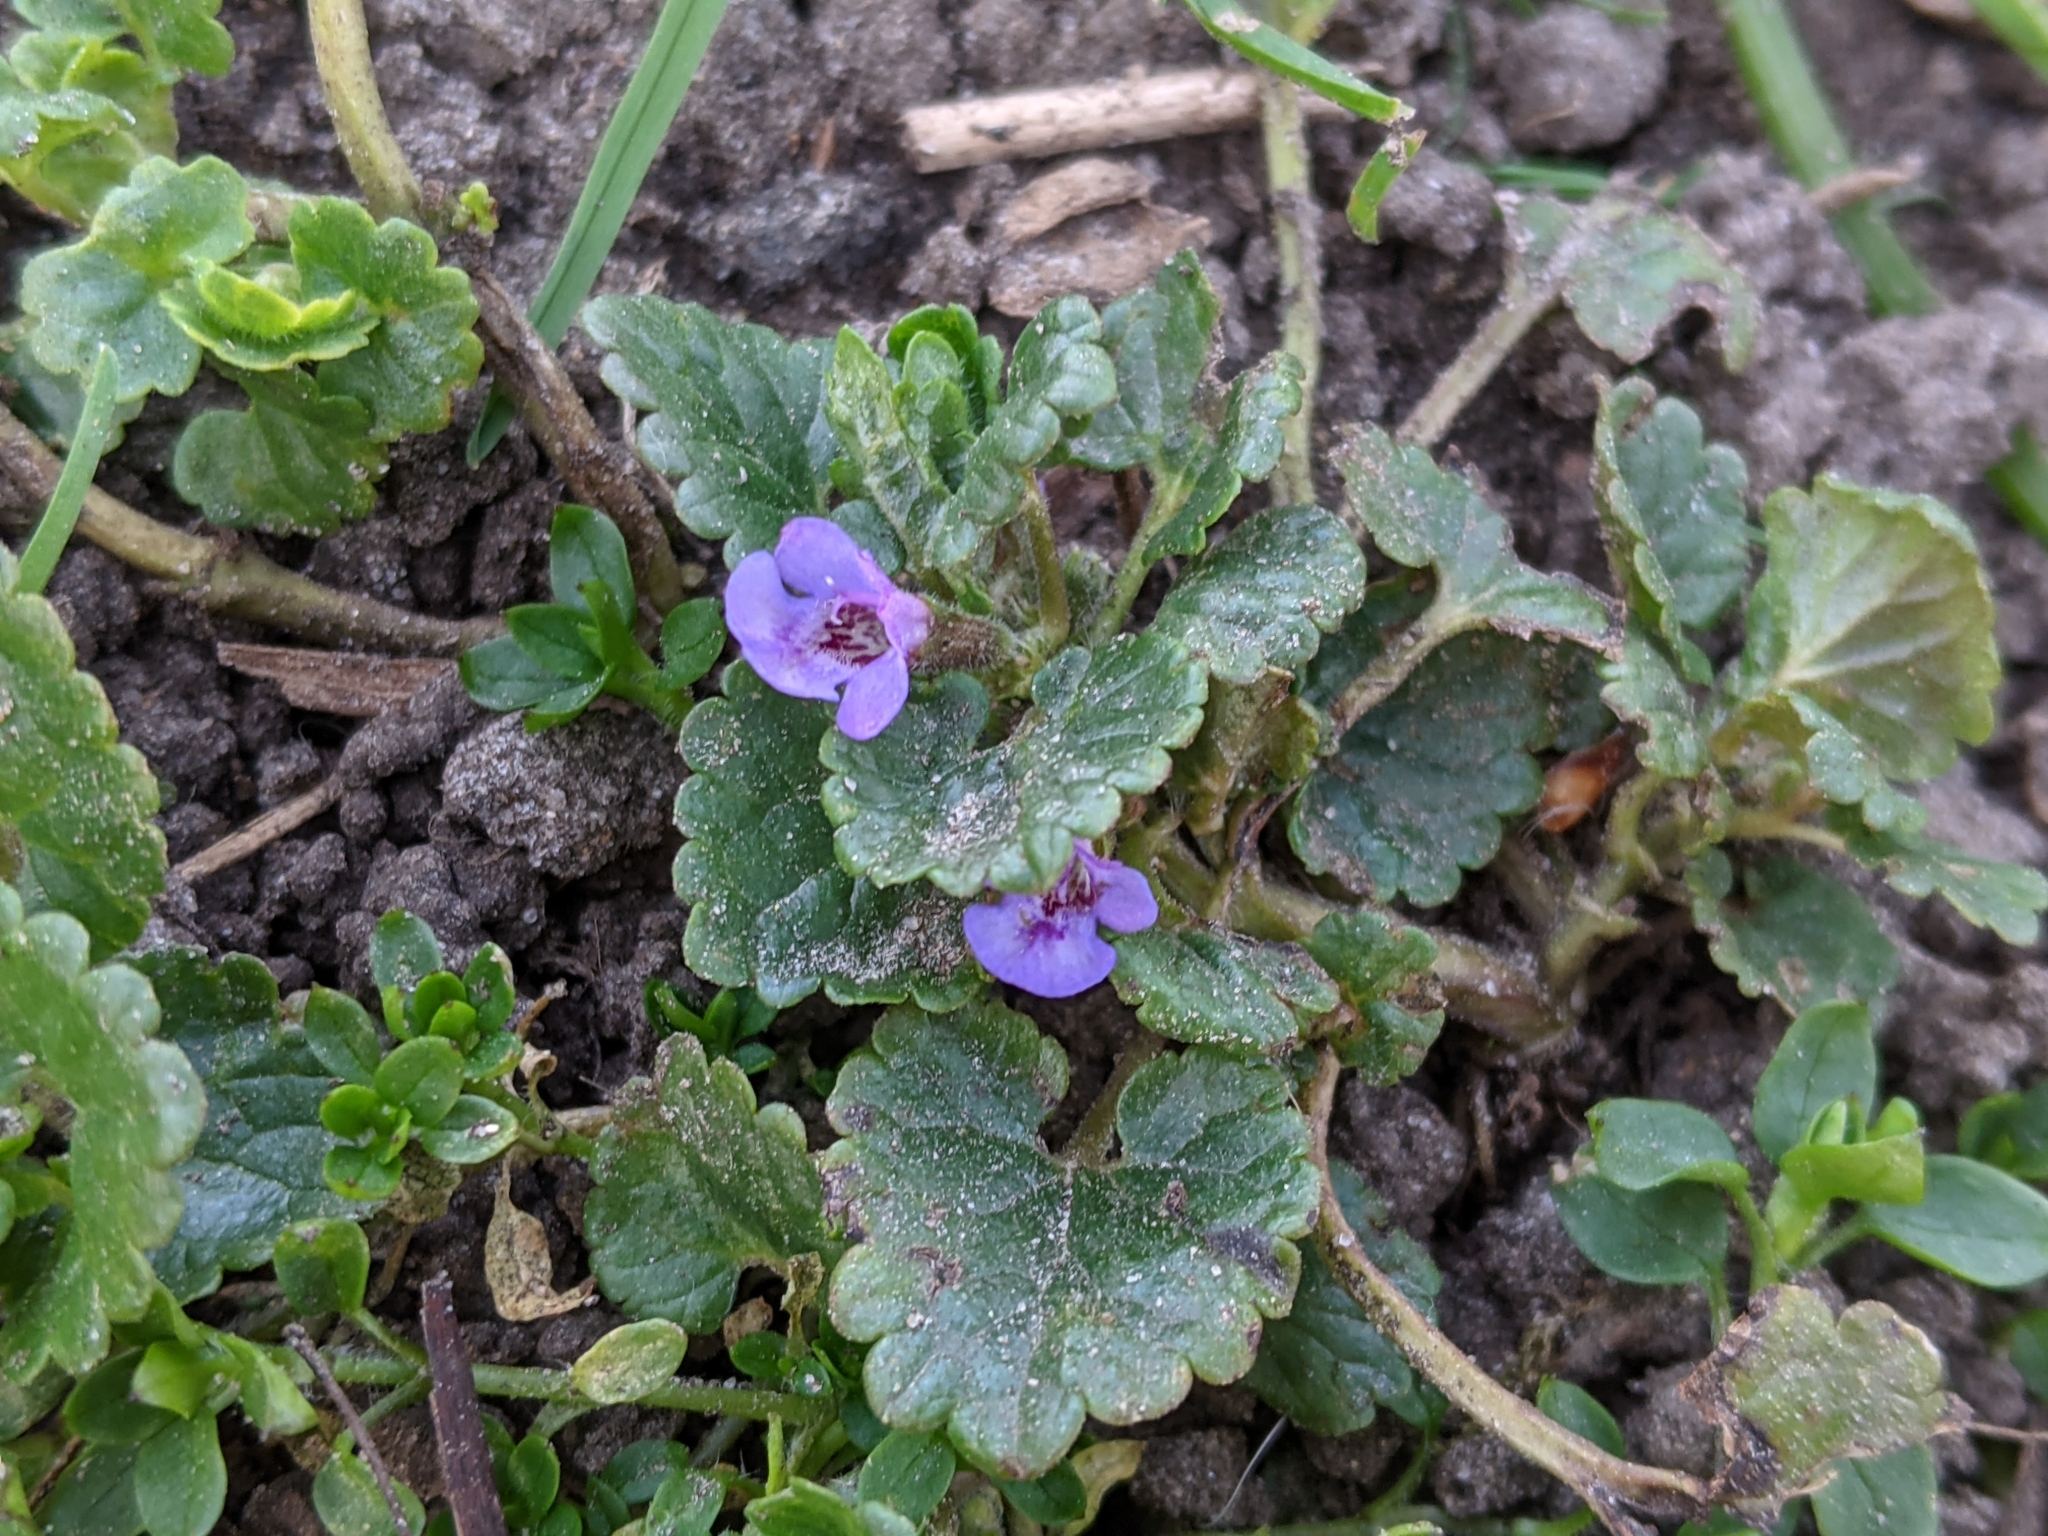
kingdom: Plantae
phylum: Tracheophyta
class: Magnoliopsida
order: Lamiales
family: Lamiaceae
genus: Glechoma
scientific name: Glechoma hederacea
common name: Ground ivy
